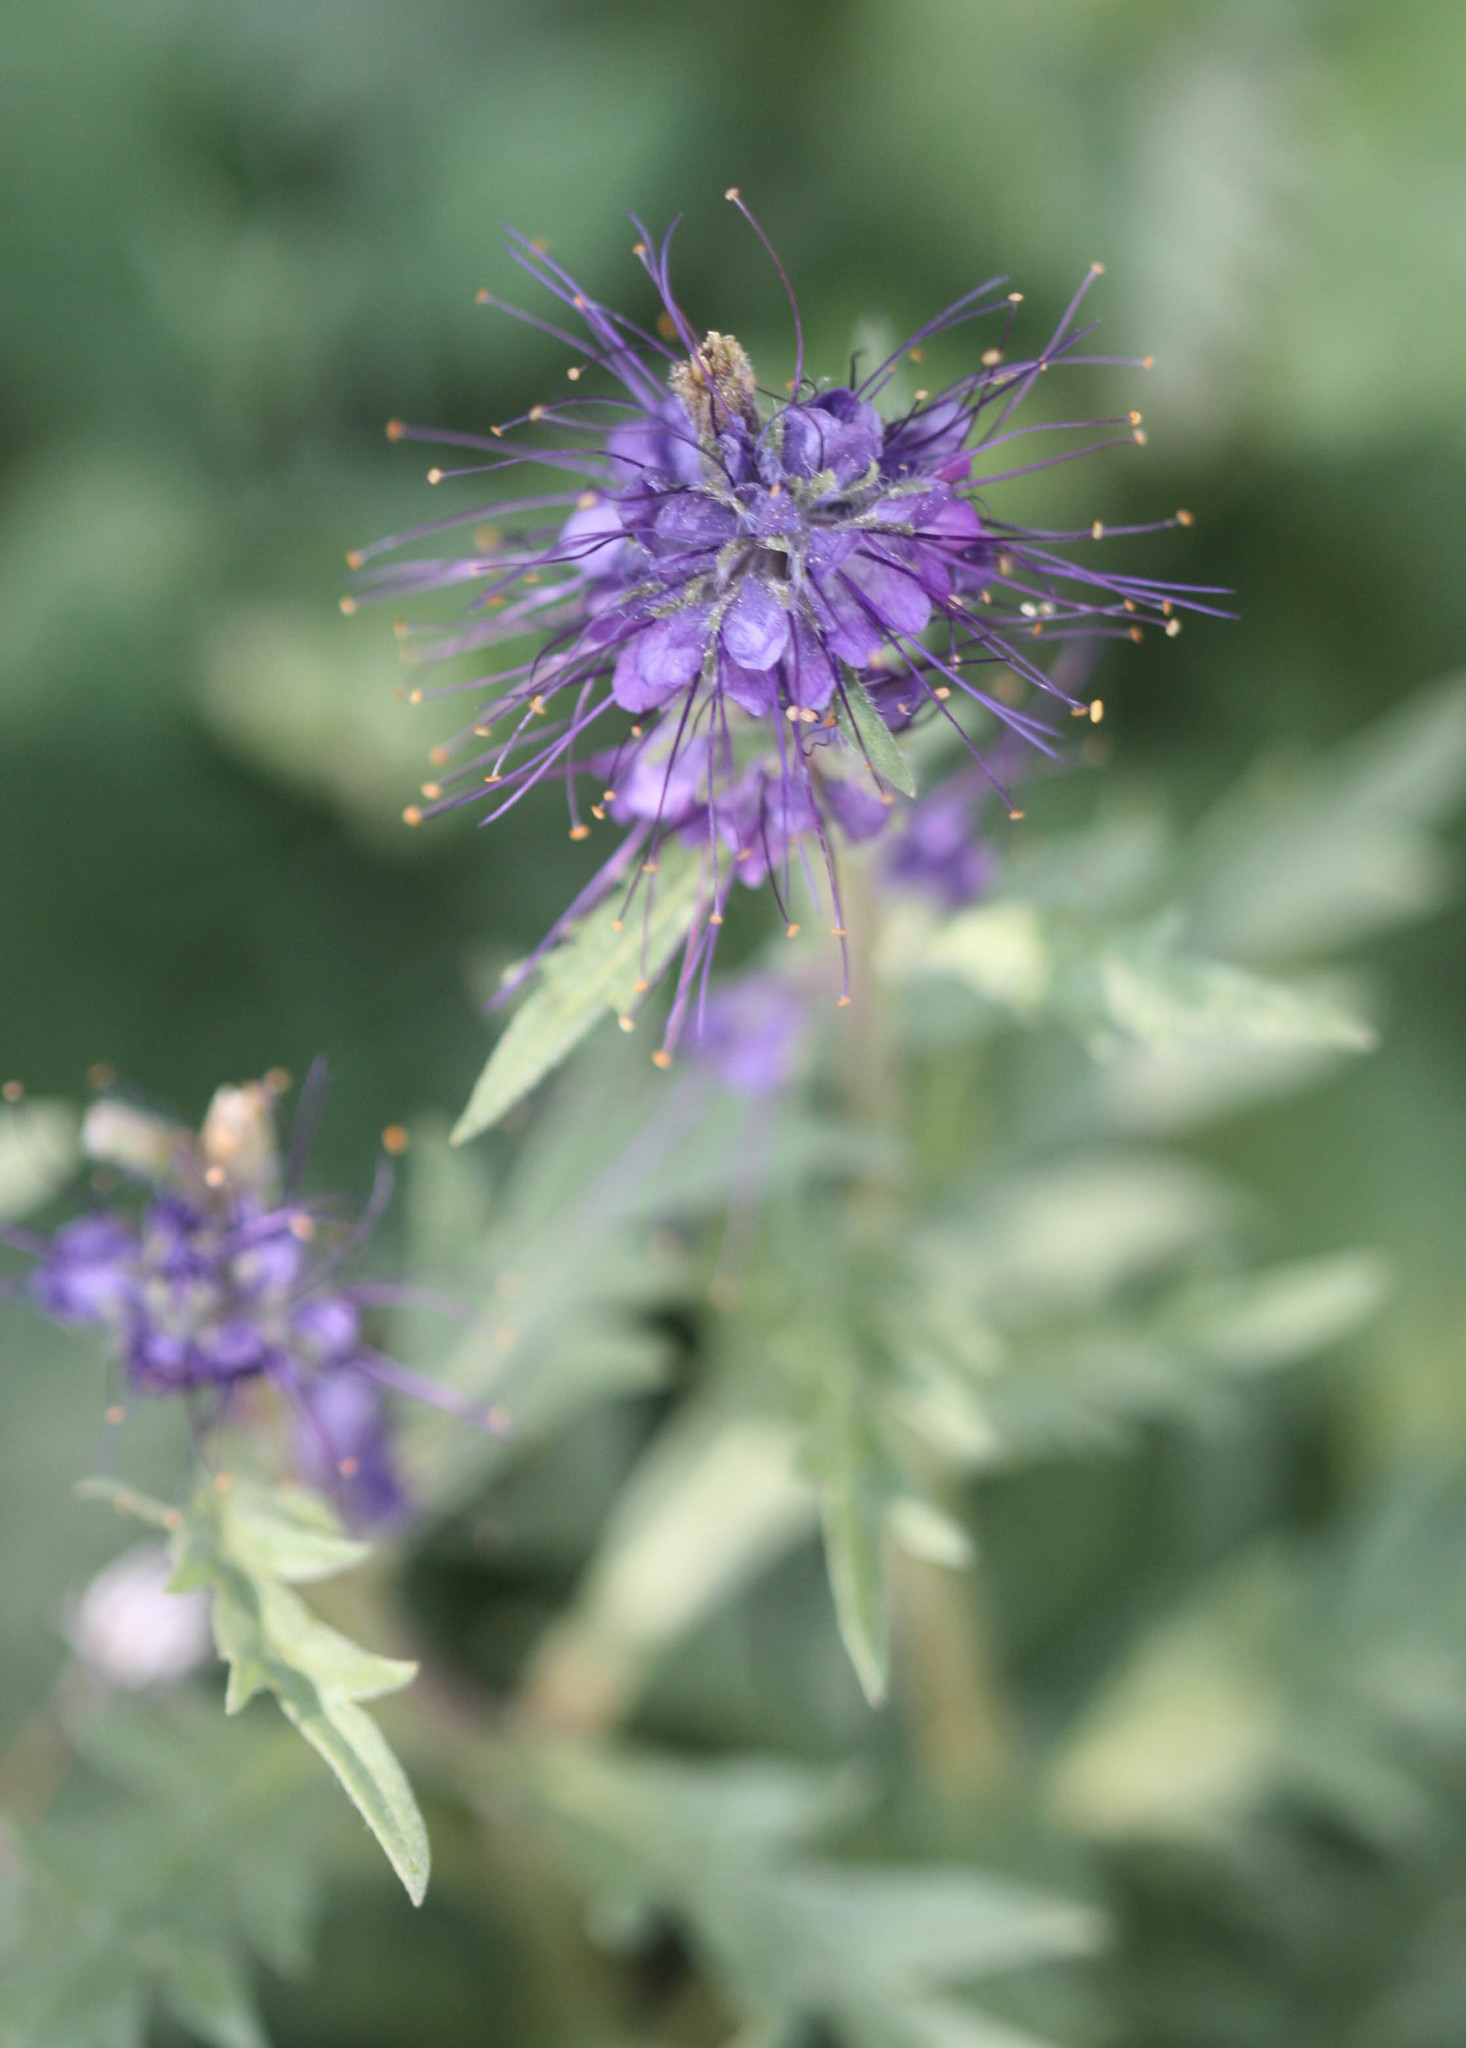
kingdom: Plantae
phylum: Tracheophyta
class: Magnoliopsida
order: Boraginales
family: Hydrophyllaceae
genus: Phacelia
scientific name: Phacelia sericea
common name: Silky phacelia
